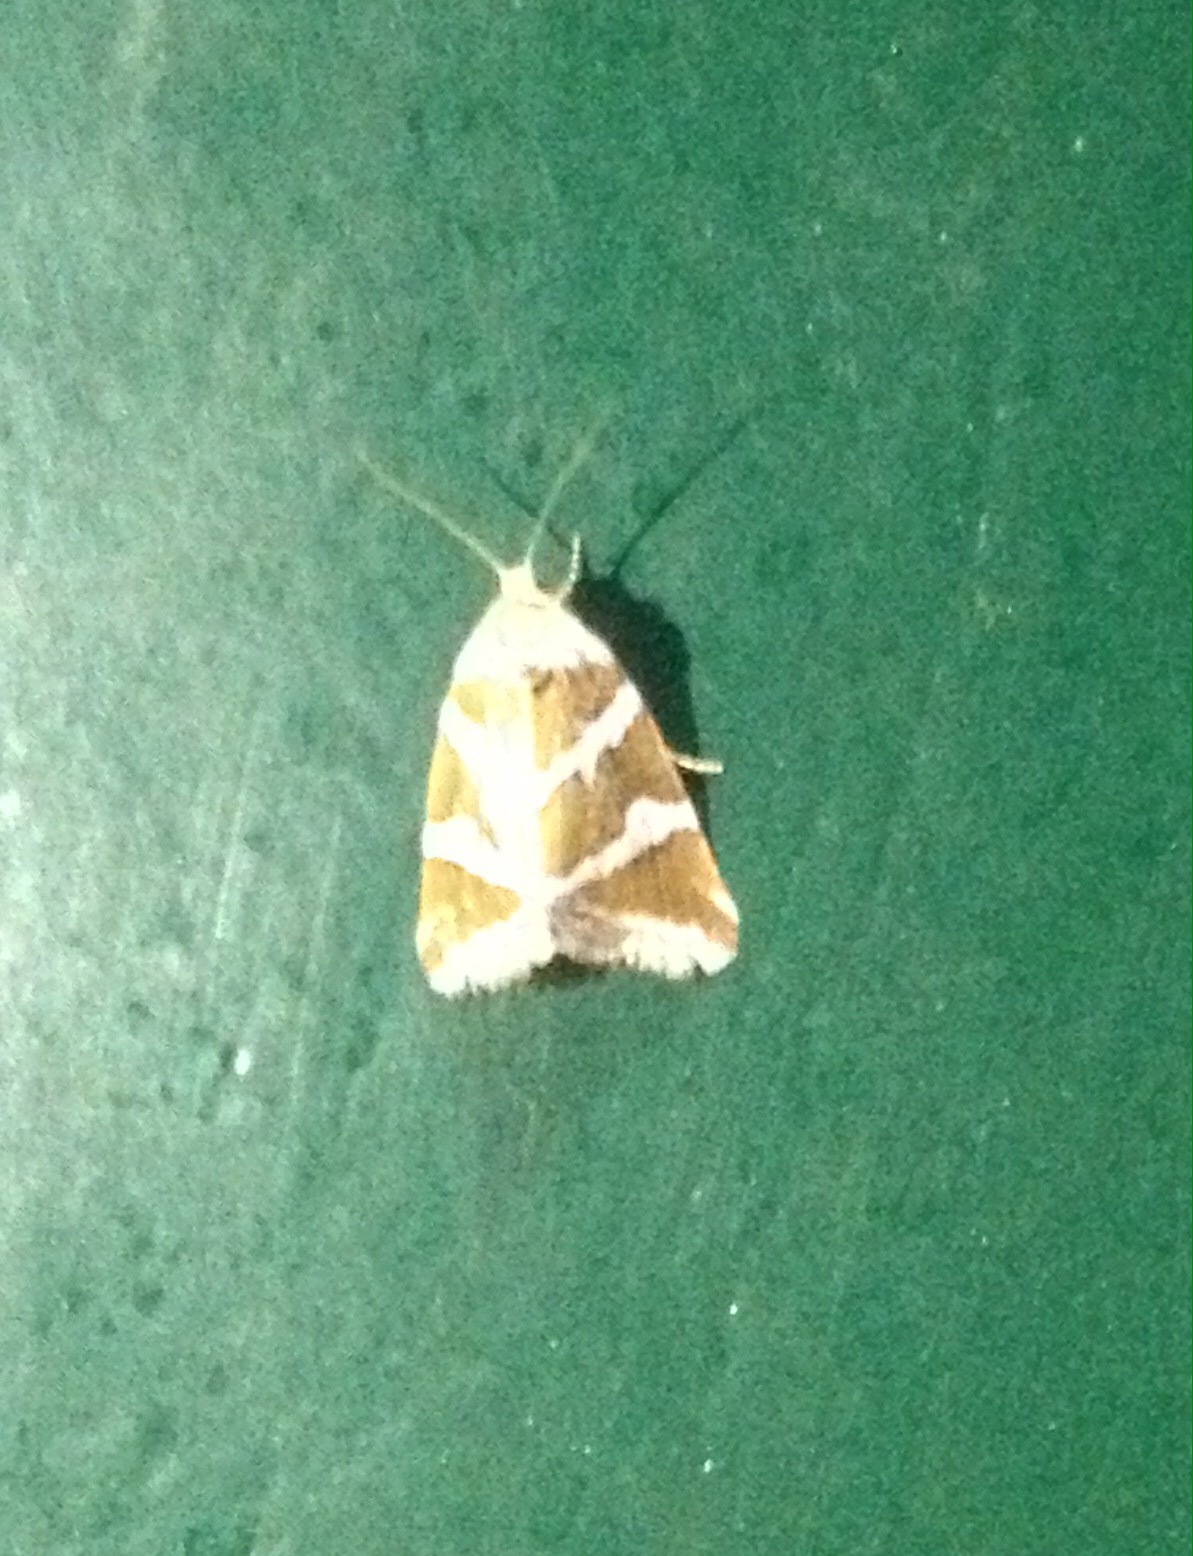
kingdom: Animalia
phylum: Arthropoda
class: Insecta
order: Lepidoptera
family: Noctuidae
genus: Deltote
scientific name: Deltote bankiana
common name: Silver barred
